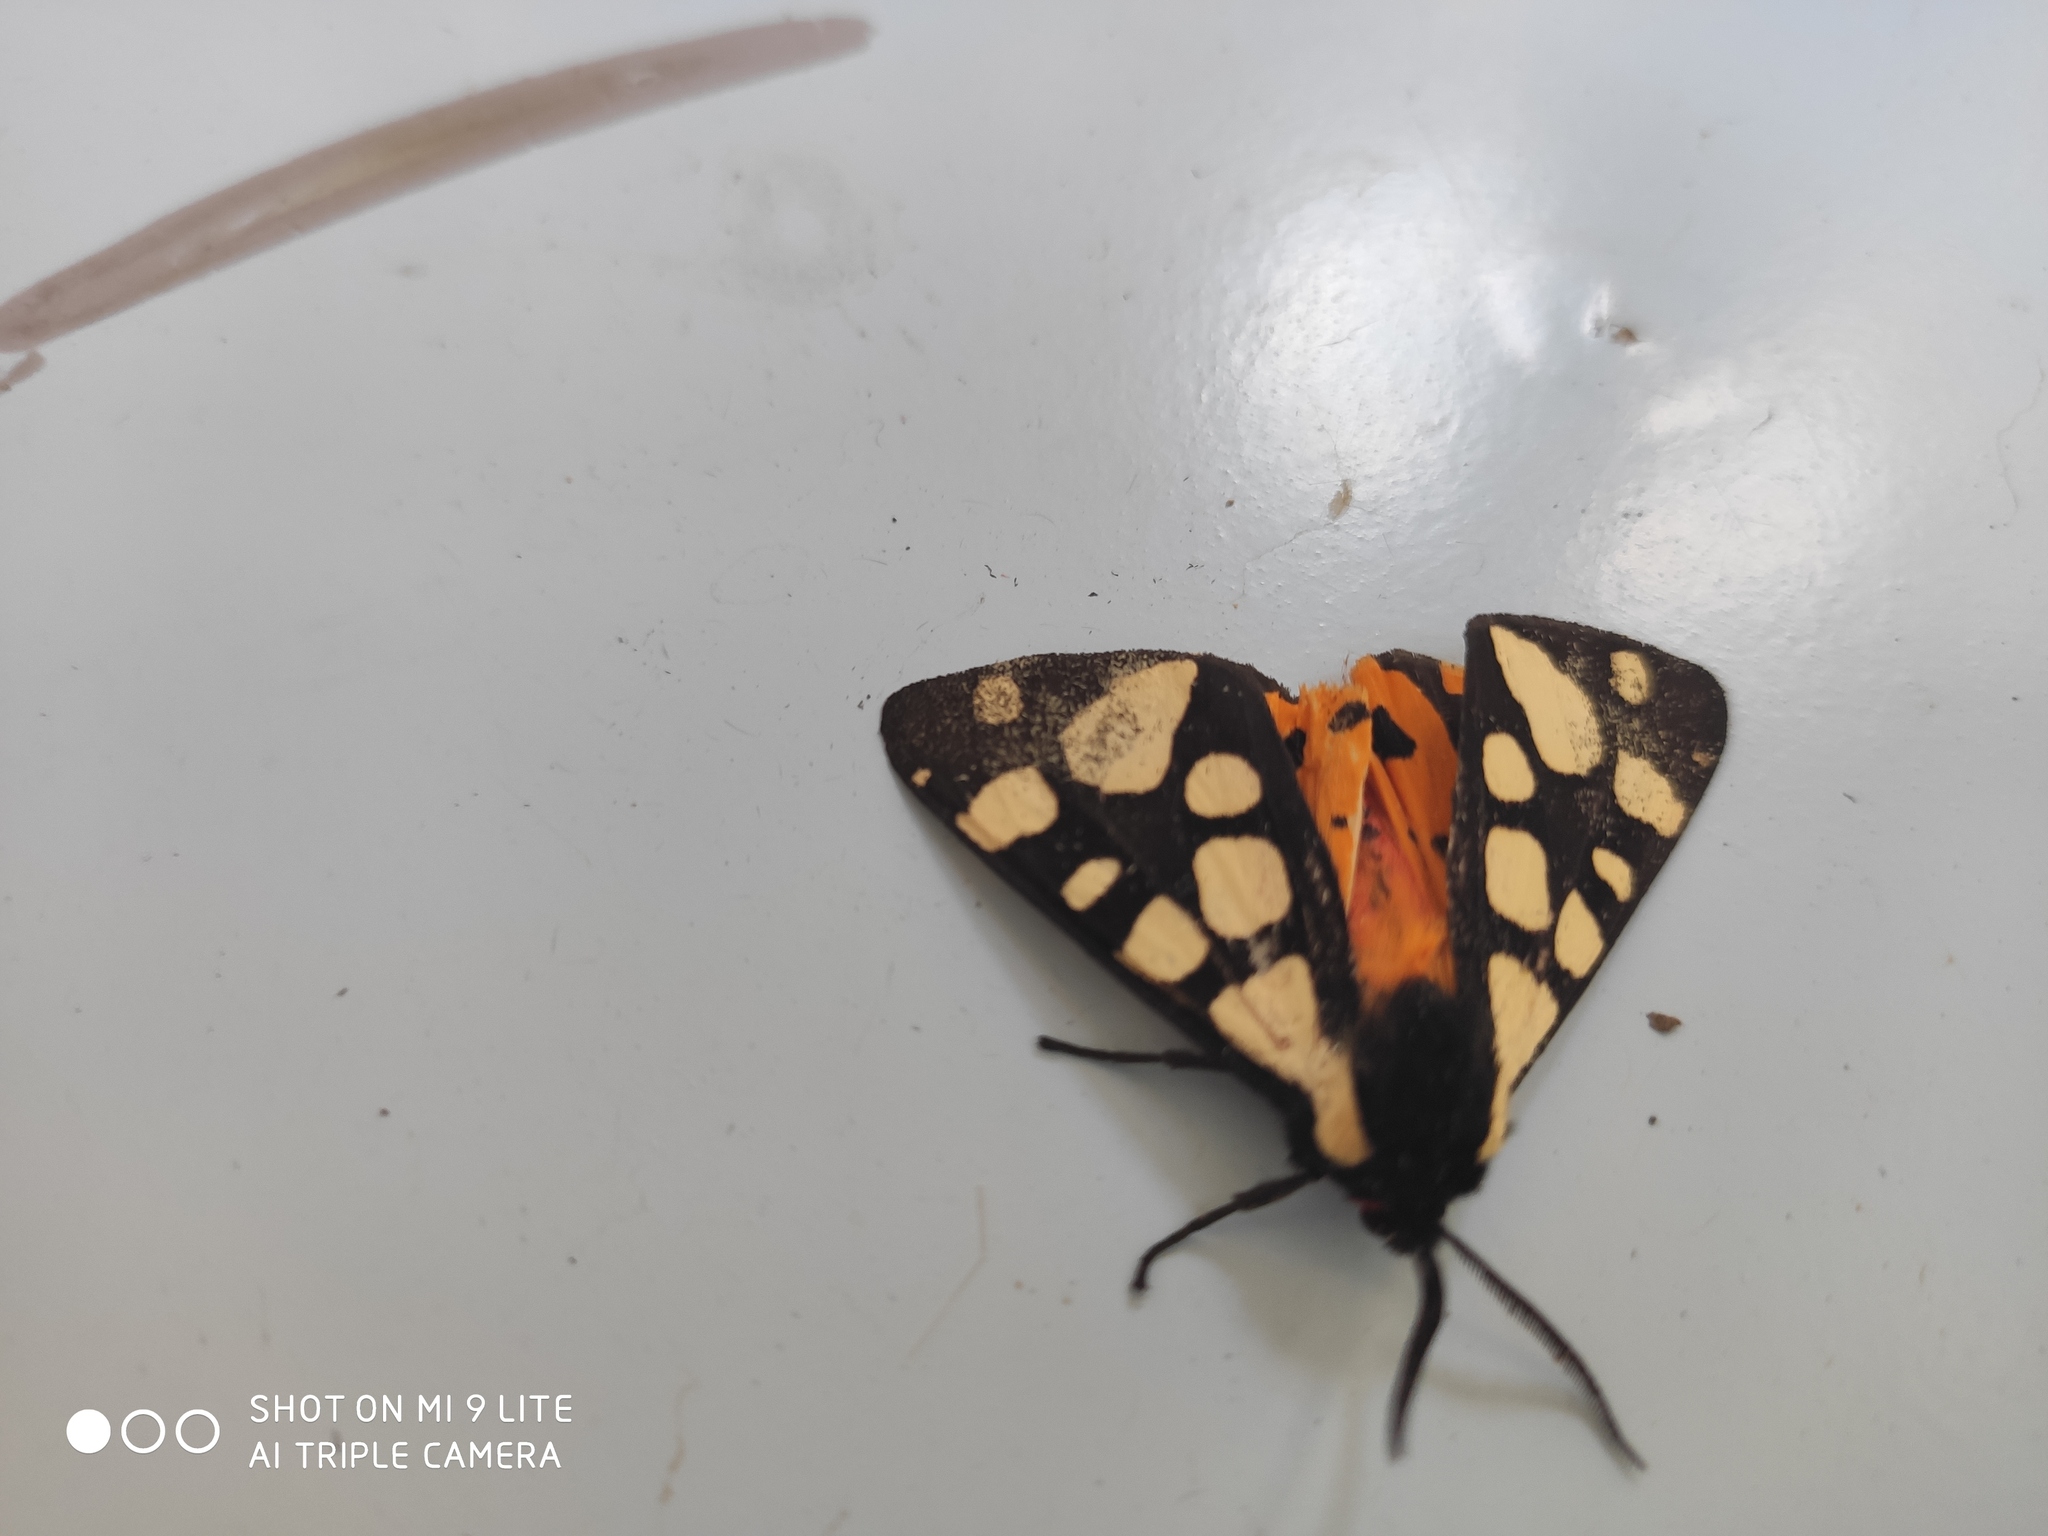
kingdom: Animalia
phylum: Arthropoda
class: Insecta
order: Lepidoptera
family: Erebidae
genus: Epicallia
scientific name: Epicallia villica
